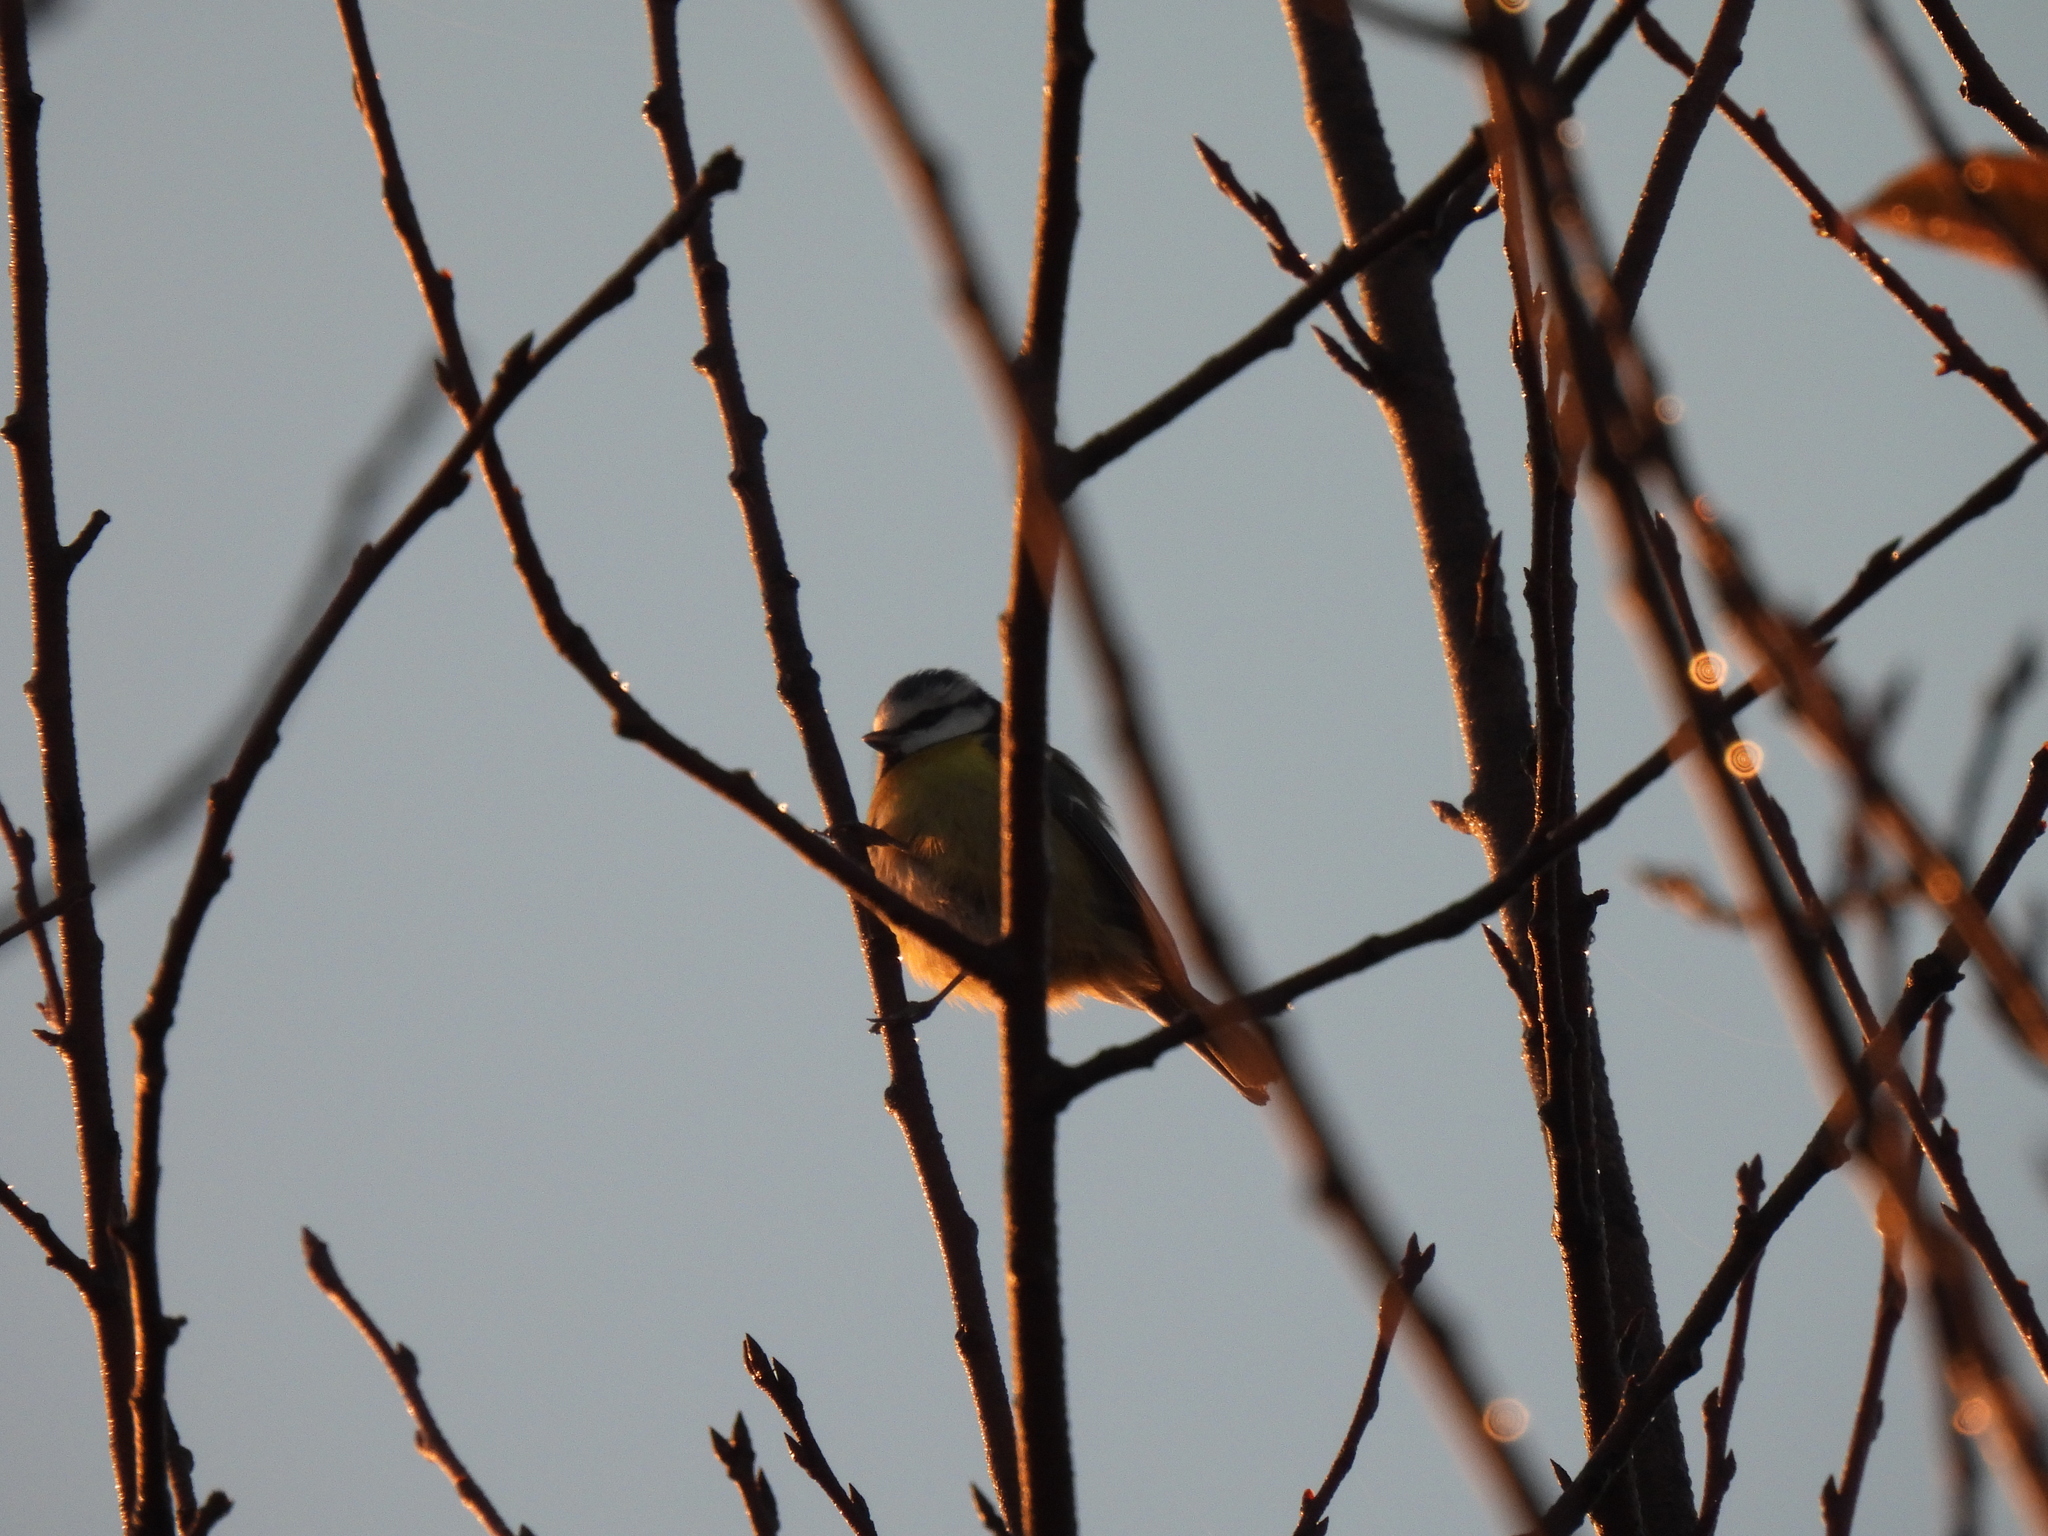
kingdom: Animalia
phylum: Chordata
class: Aves
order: Passeriformes
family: Paridae
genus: Cyanistes
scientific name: Cyanistes caeruleus
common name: Eurasian blue tit
